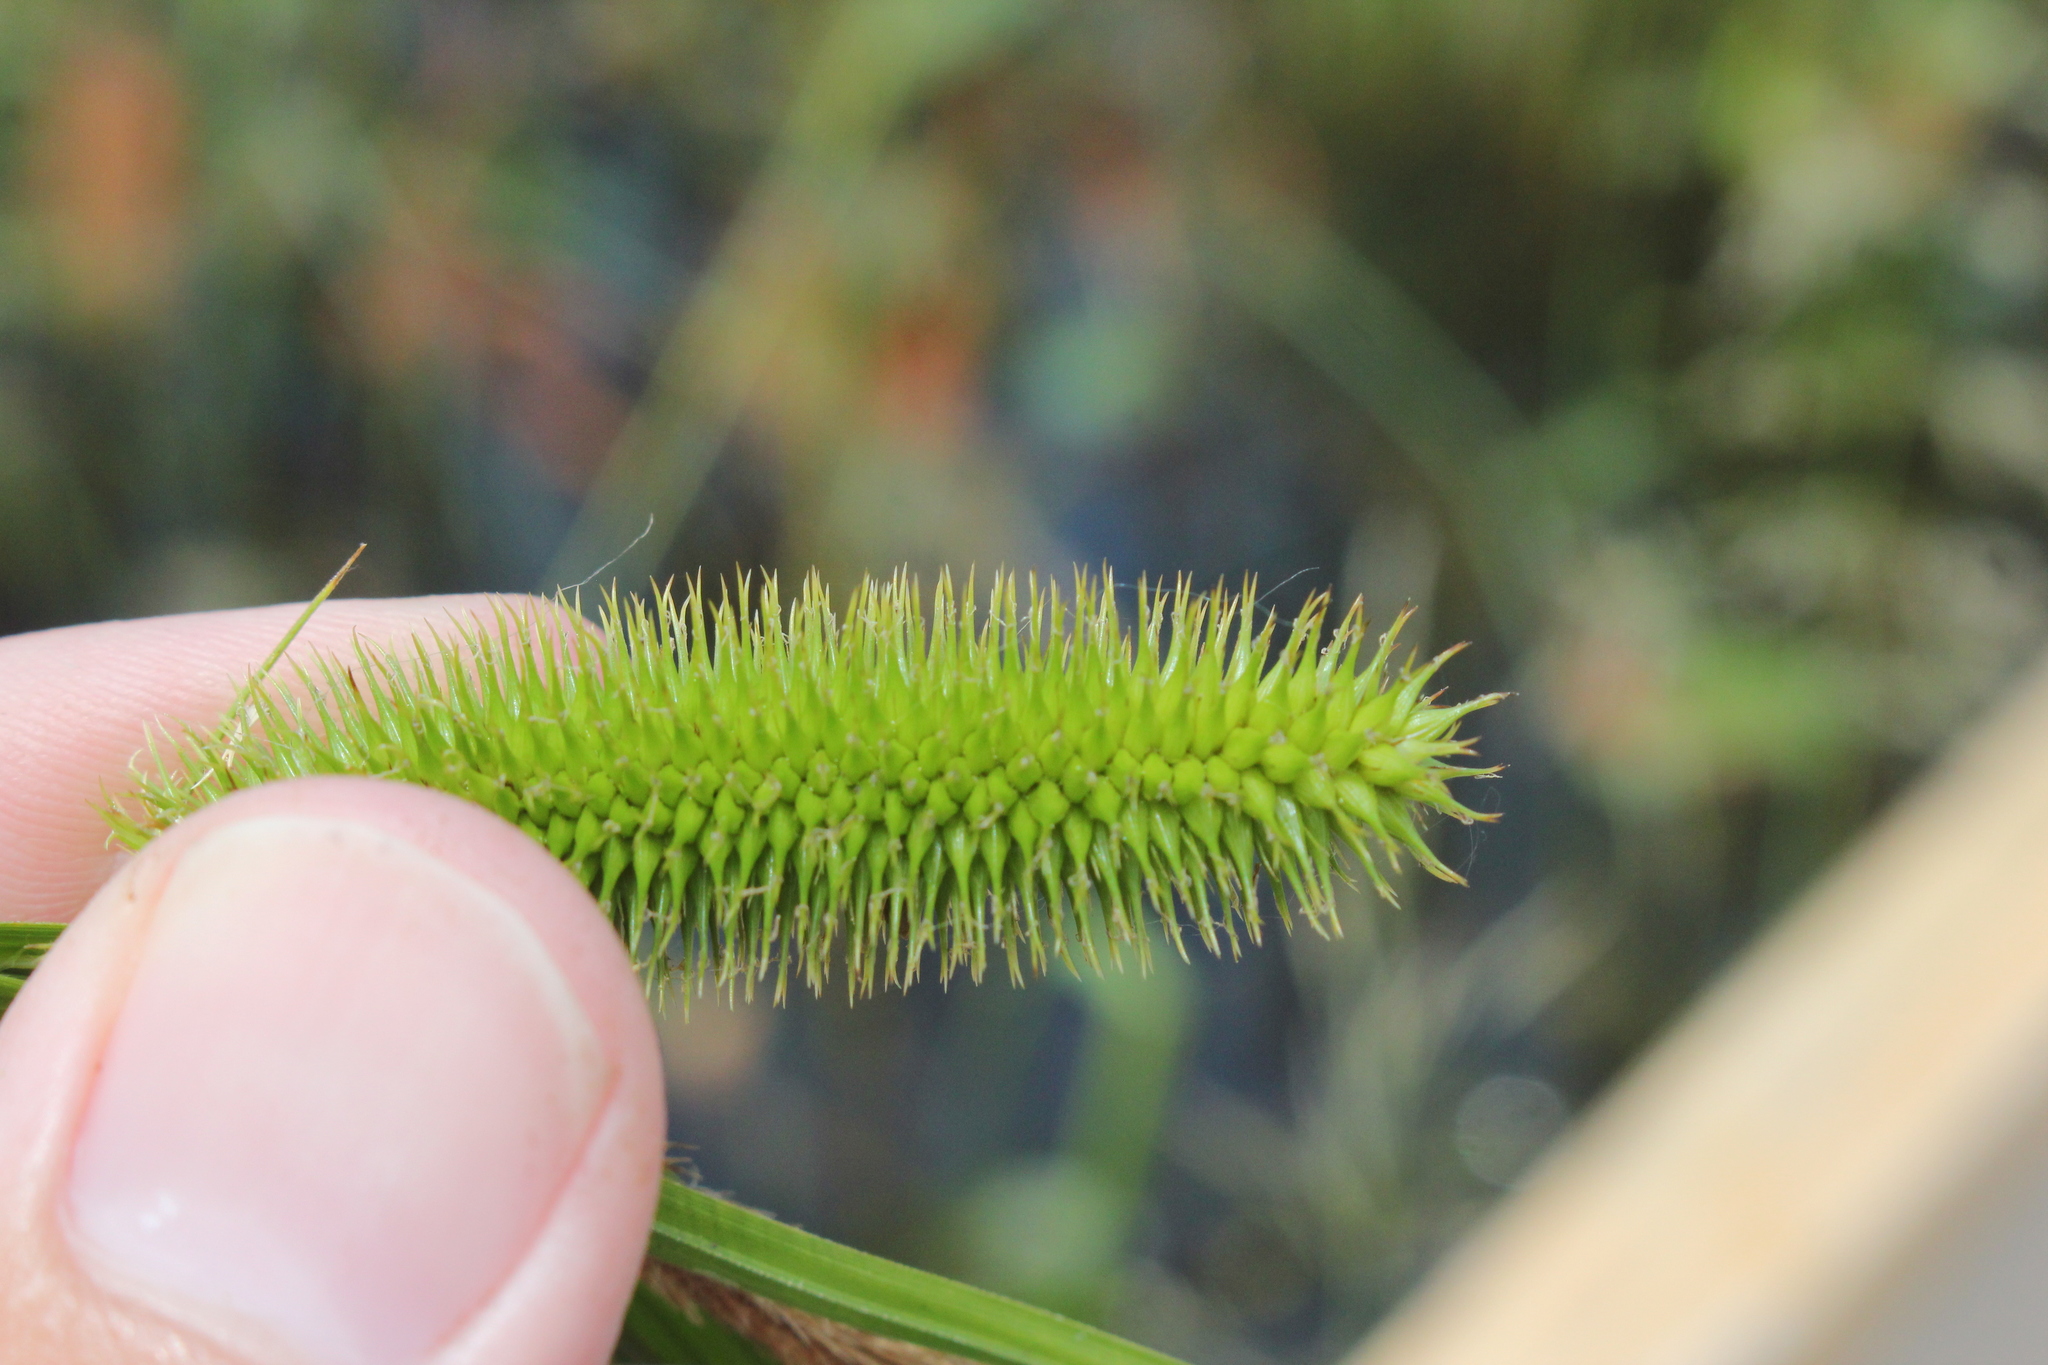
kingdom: Plantae
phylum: Tracheophyta
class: Liliopsida
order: Poales
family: Cyperaceae
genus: Carex
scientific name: Carex comosa
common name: Bristly sedge
